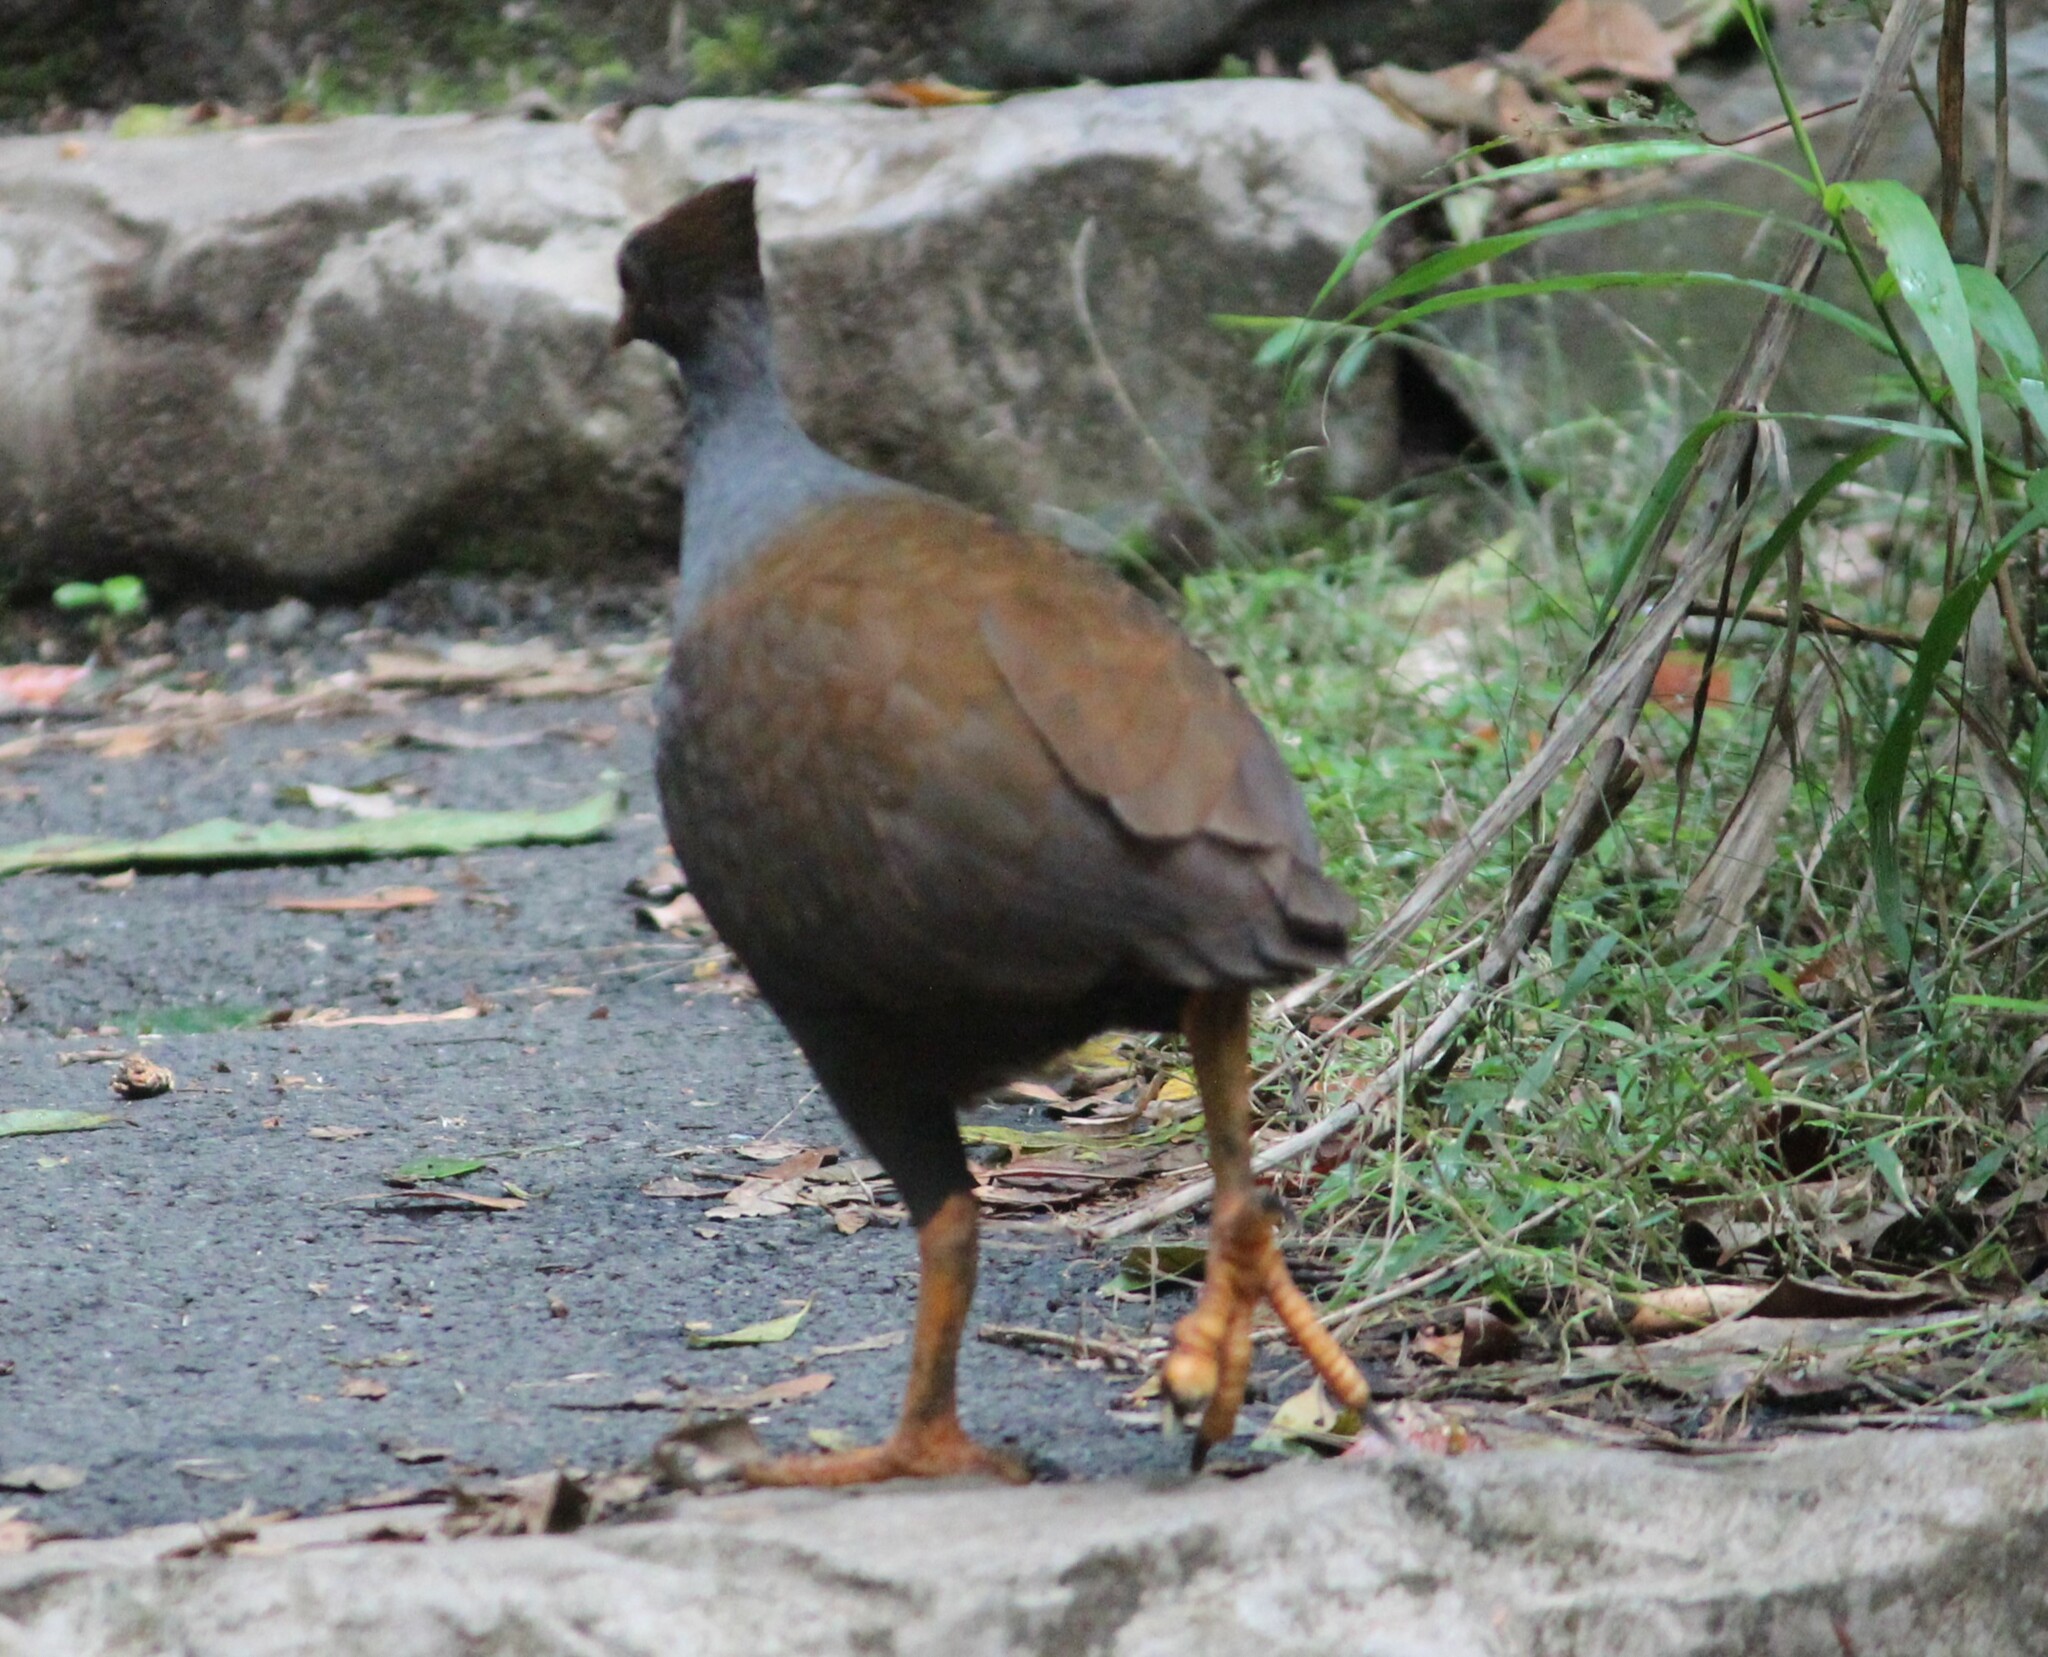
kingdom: Animalia
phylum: Chordata
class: Aves
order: Galliformes
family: Megapodiidae
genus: Megapodius
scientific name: Megapodius reinwardt
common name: Orange-footed scrubfowl
